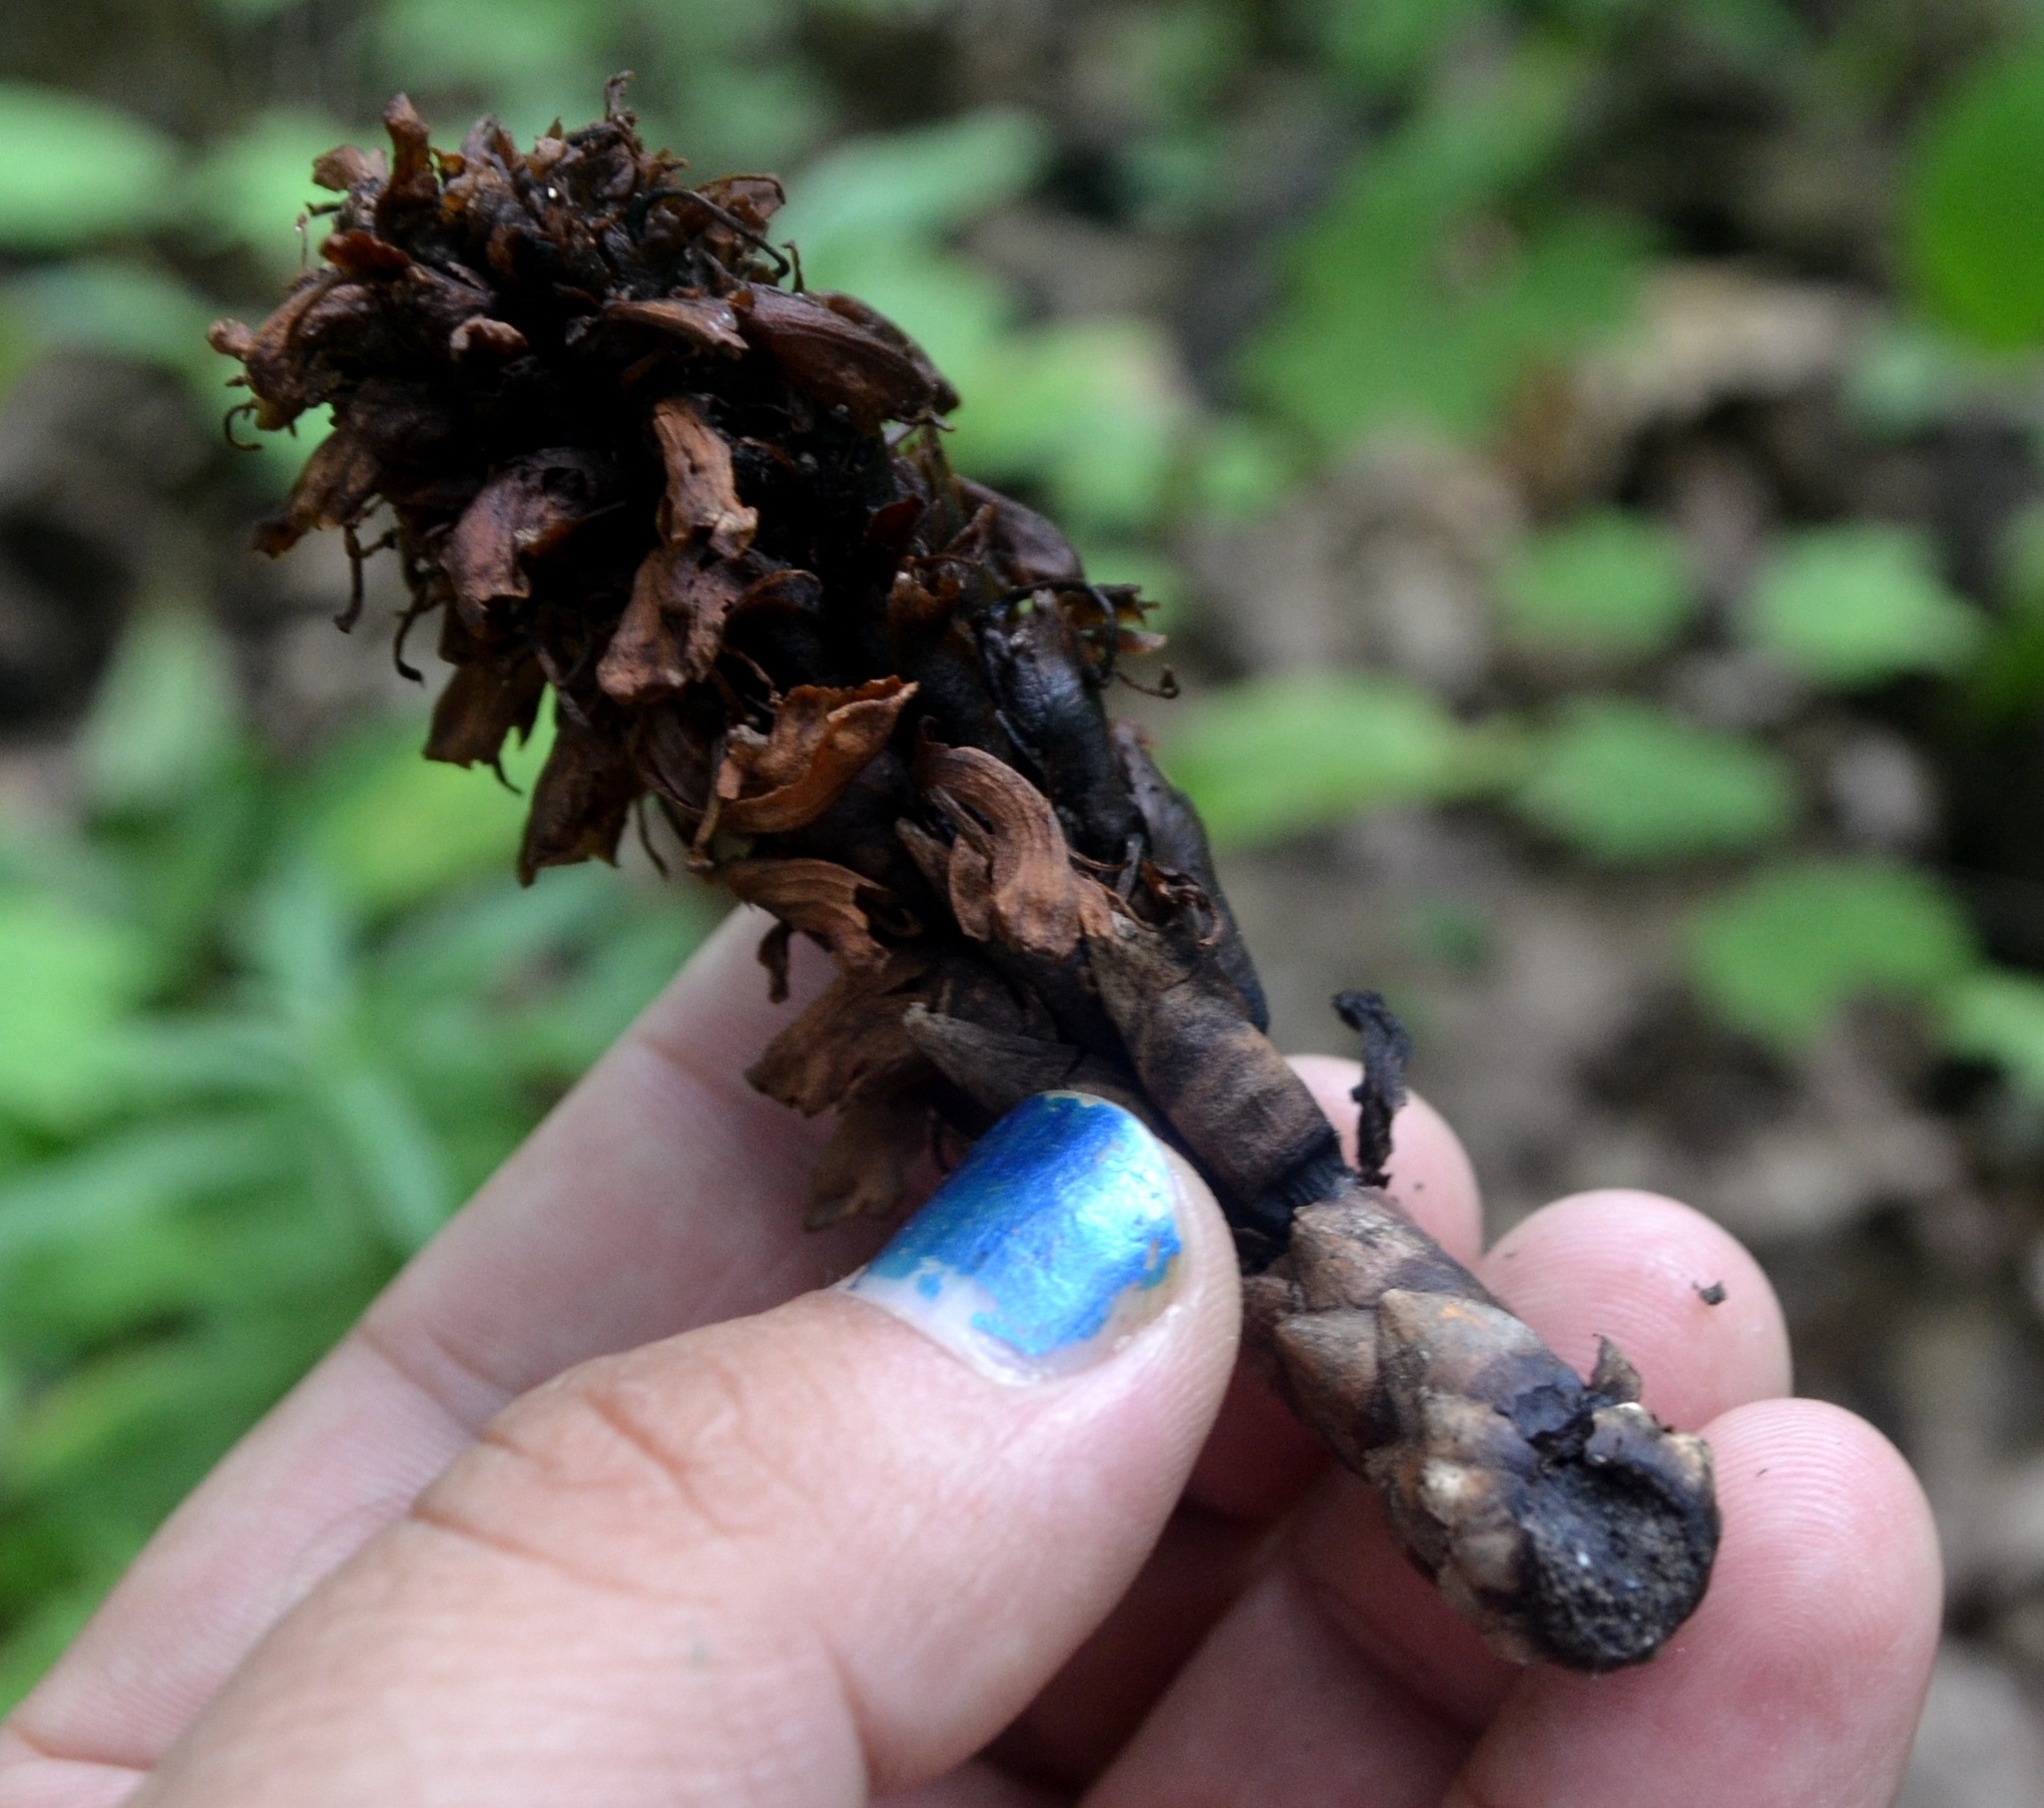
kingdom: Plantae
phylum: Tracheophyta
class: Magnoliopsida
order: Lamiales
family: Orobanchaceae
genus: Conopholis
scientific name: Conopholis americana
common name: American cancer-root
